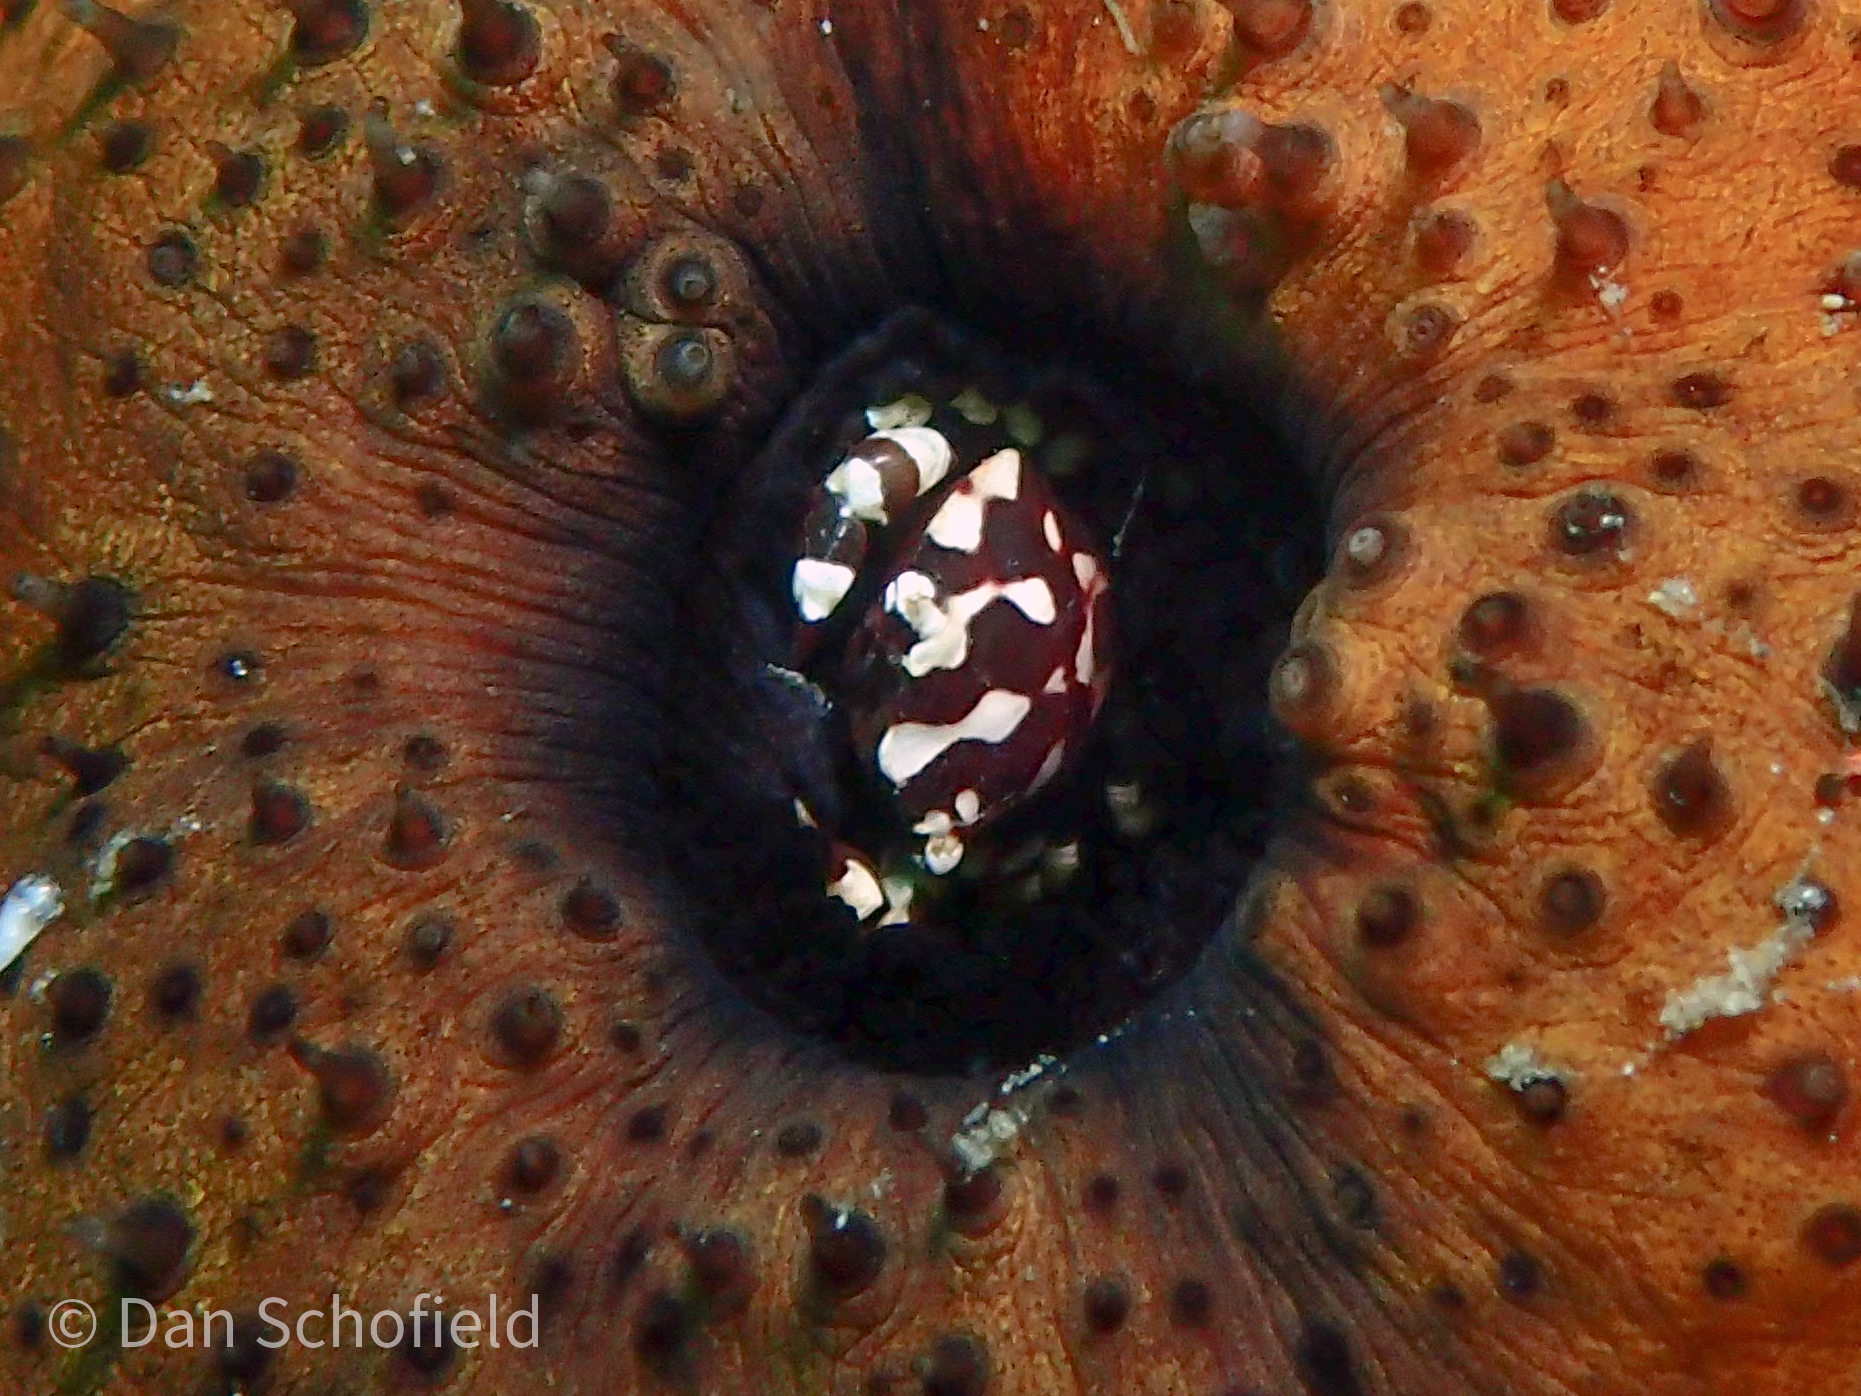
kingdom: Animalia
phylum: Arthropoda
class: Malacostraca
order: Decapoda
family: Portunidae
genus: Lissocarcinus
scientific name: Lissocarcinus orbicularis
